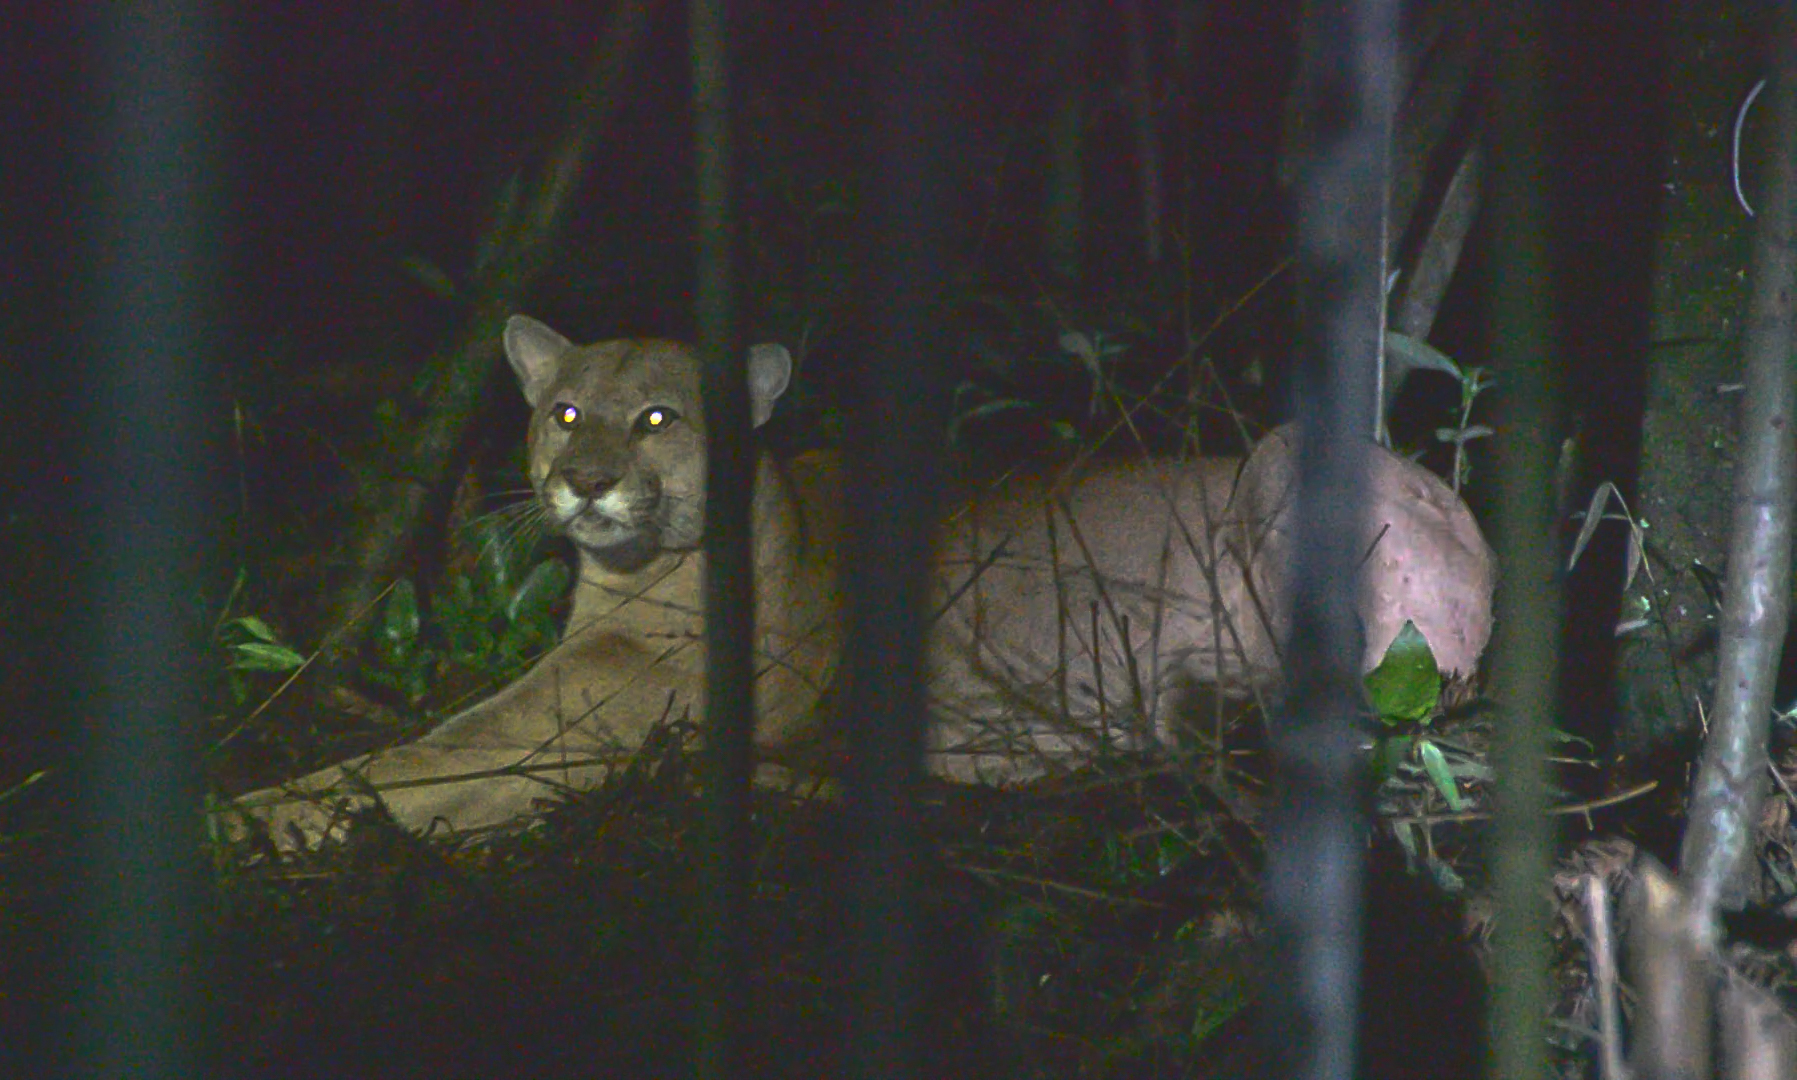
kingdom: Animalia
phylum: Chordata
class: Mammalia
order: Carnivora
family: Felidae
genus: Puma
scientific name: Puma concolor
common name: Puma
